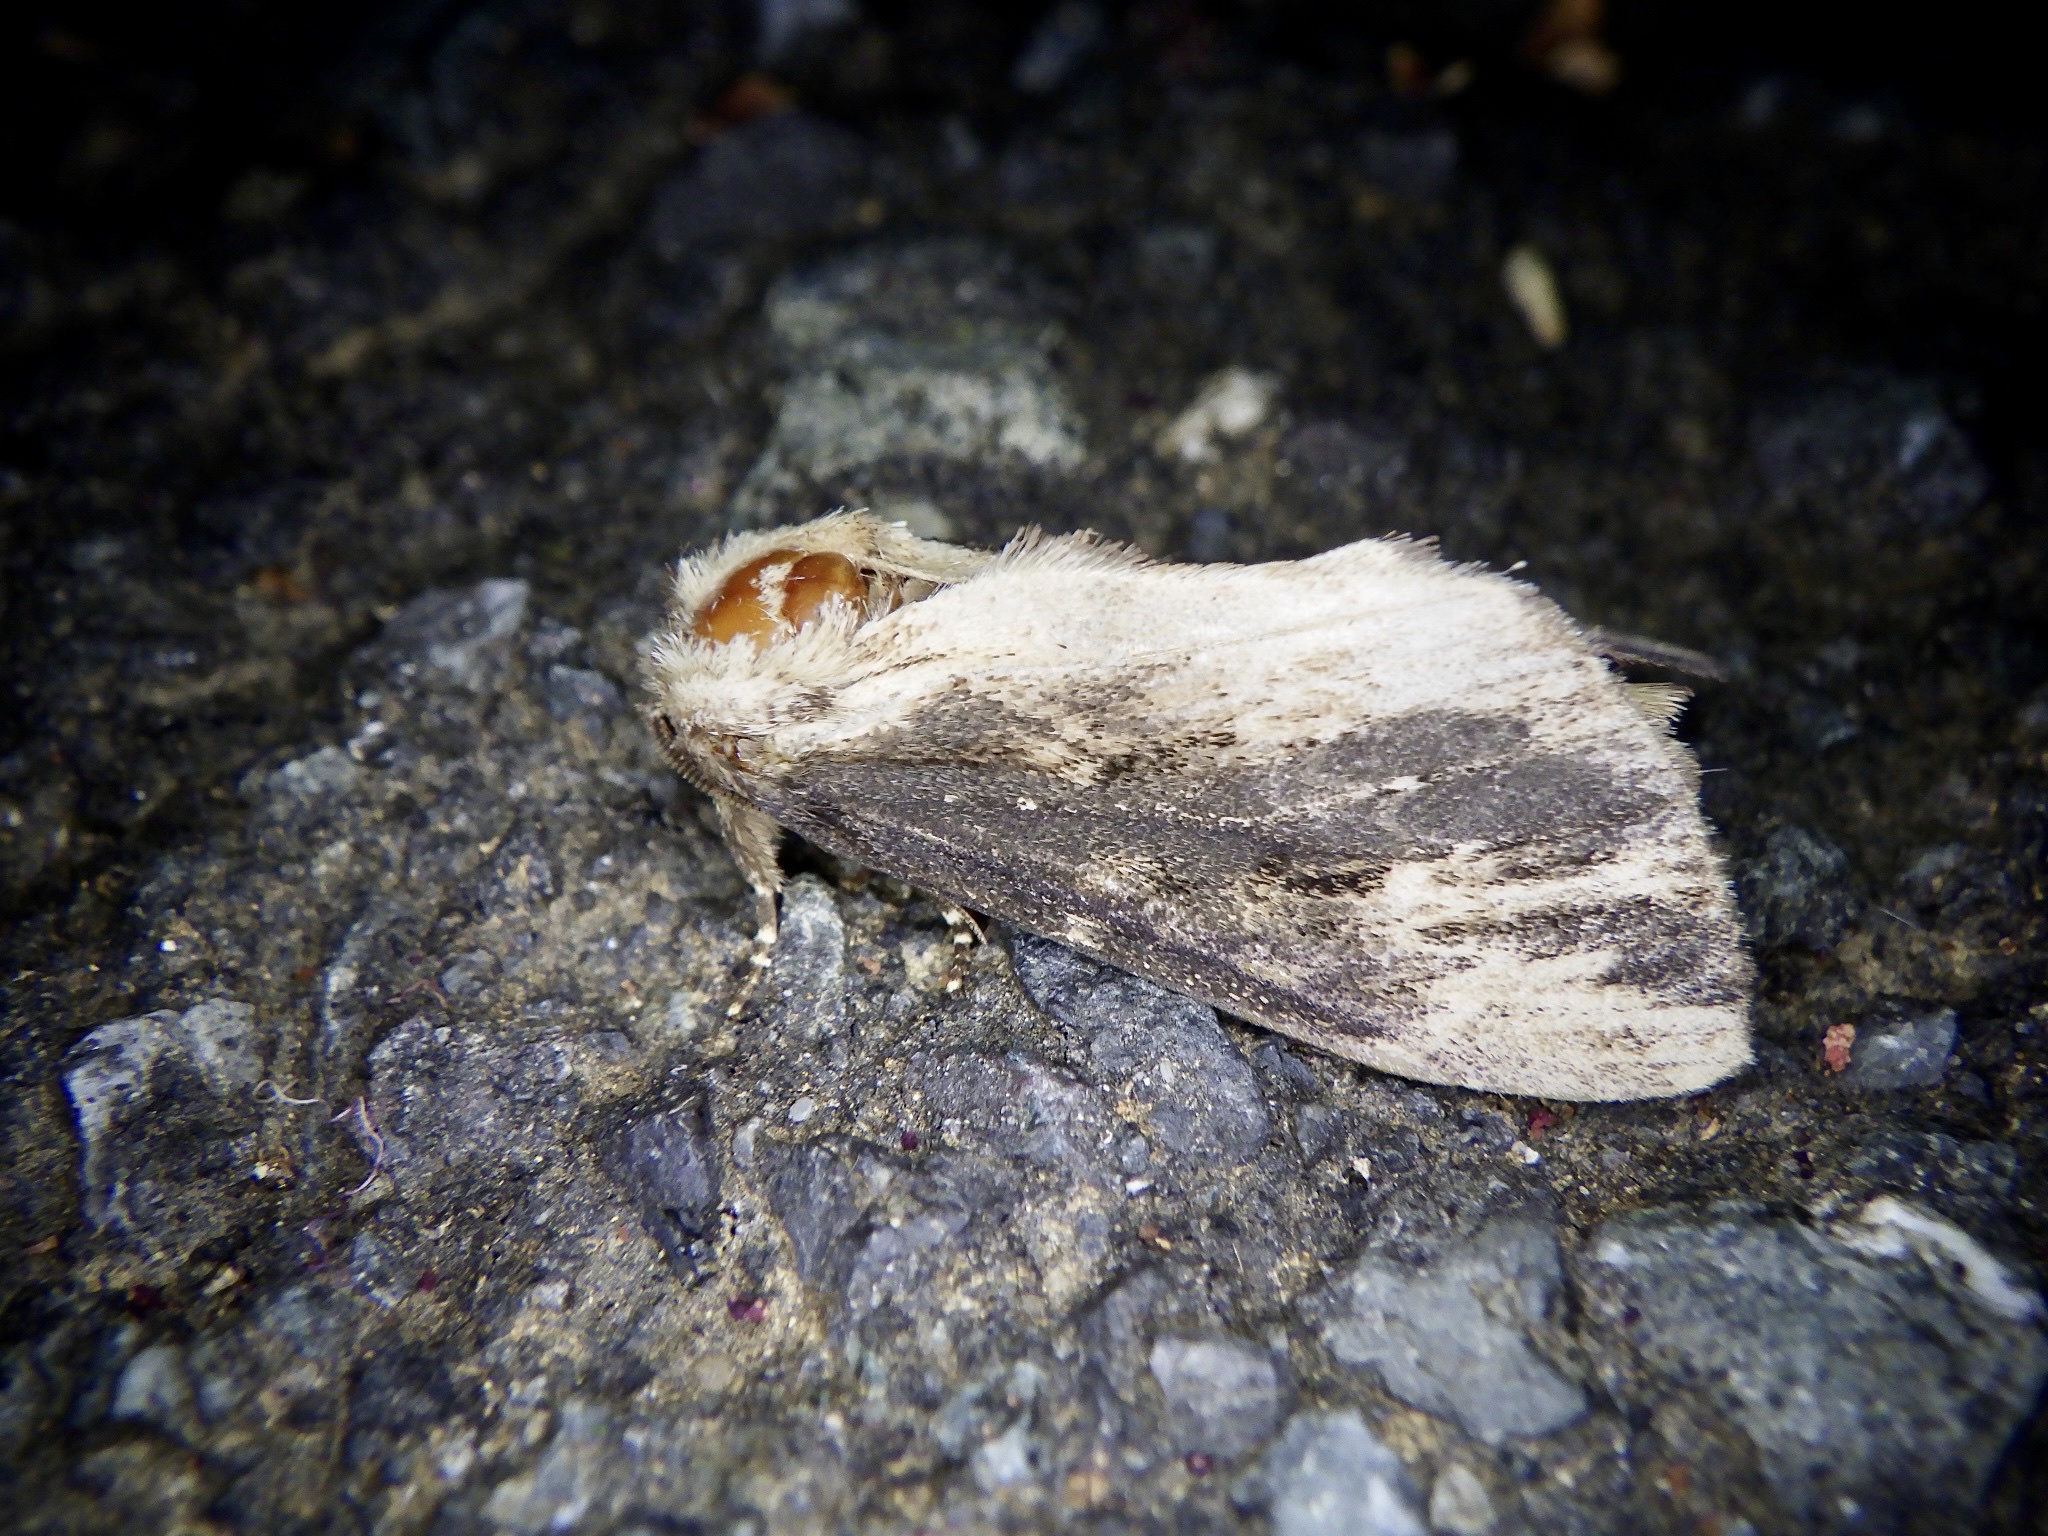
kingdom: Animalia
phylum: Arthropoda
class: Insecta
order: Lepidoptera
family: Notodontidae
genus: Hiradonta
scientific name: Hiradonta takaonis
